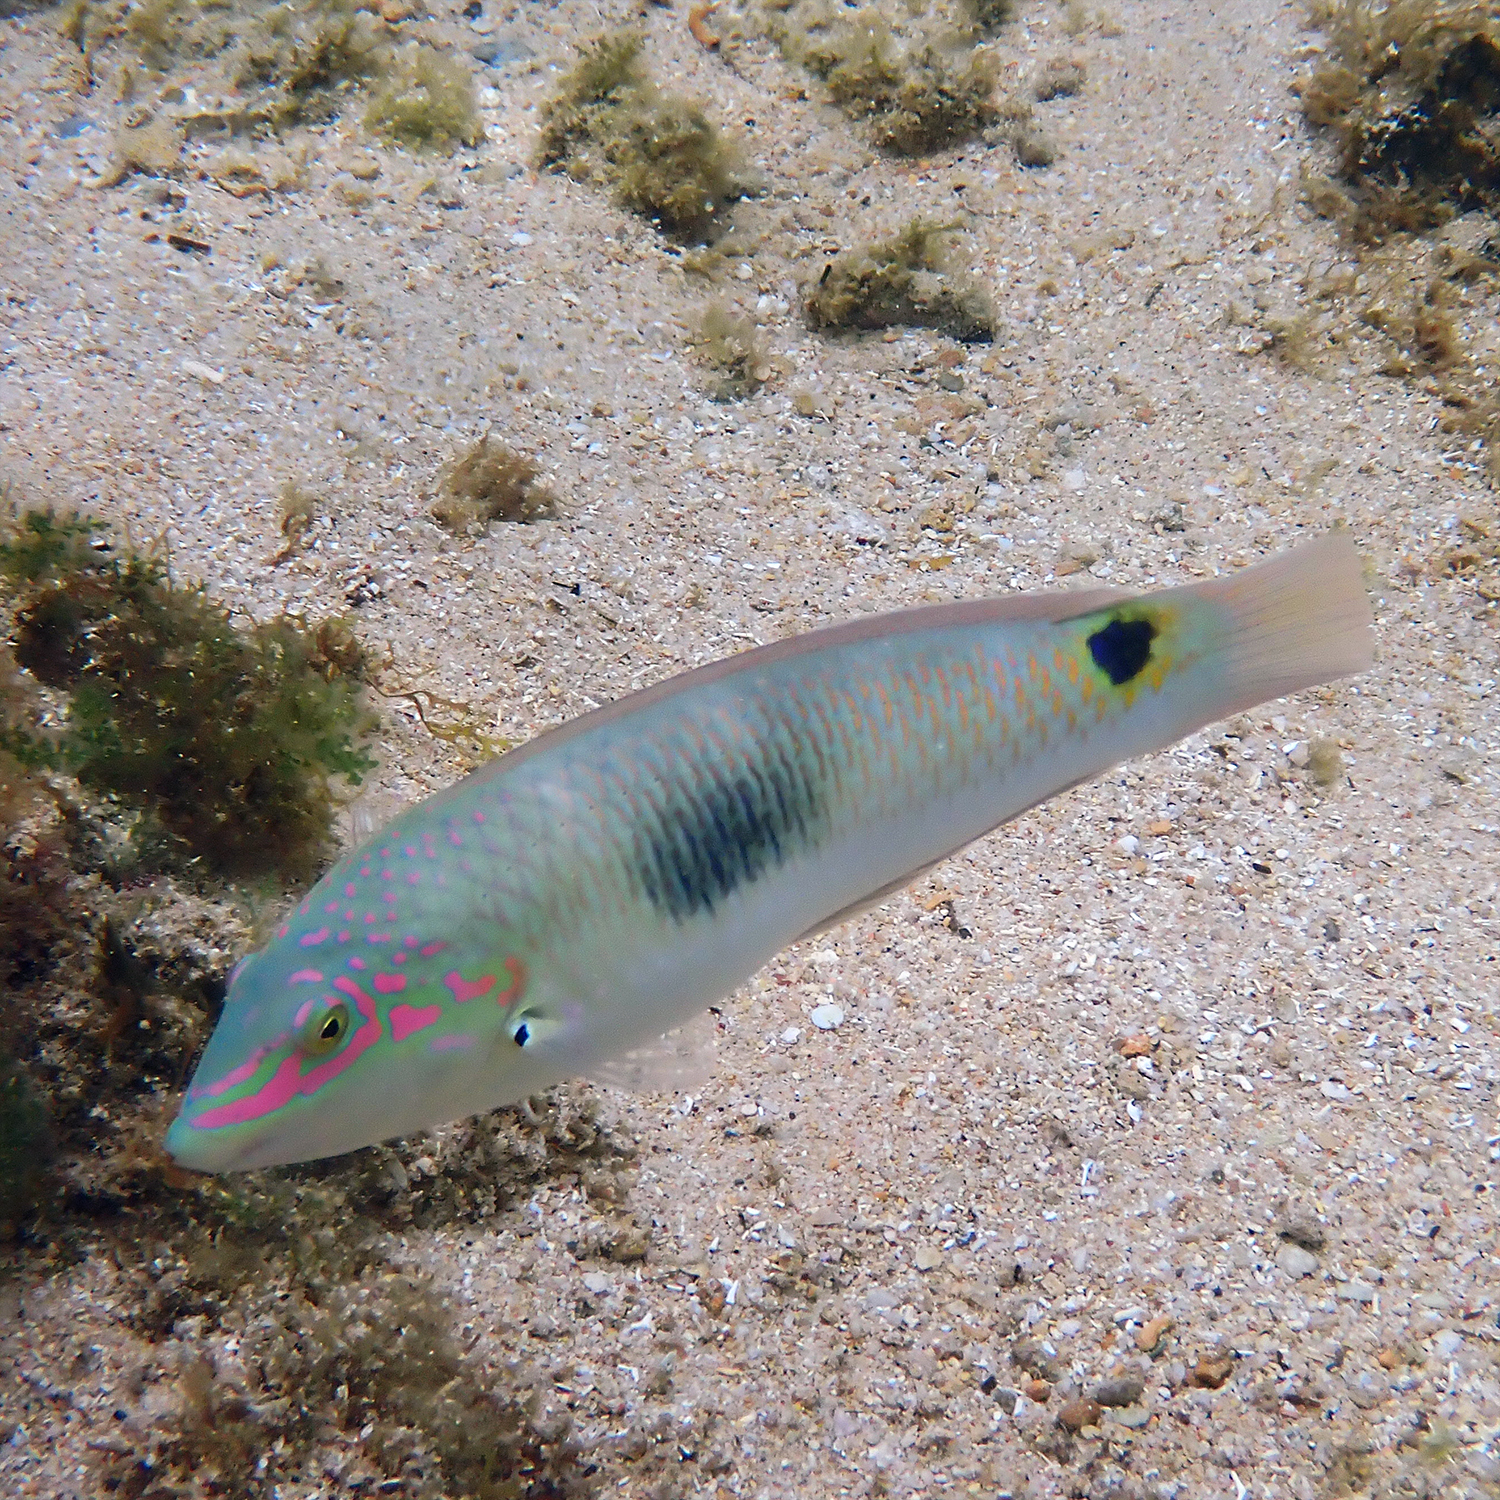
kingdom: Animalia
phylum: Chordata
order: Perciformes
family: Labridae
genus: Halichoeres
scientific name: Halichoeres trimaculatus
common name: Three-spot wrasse
